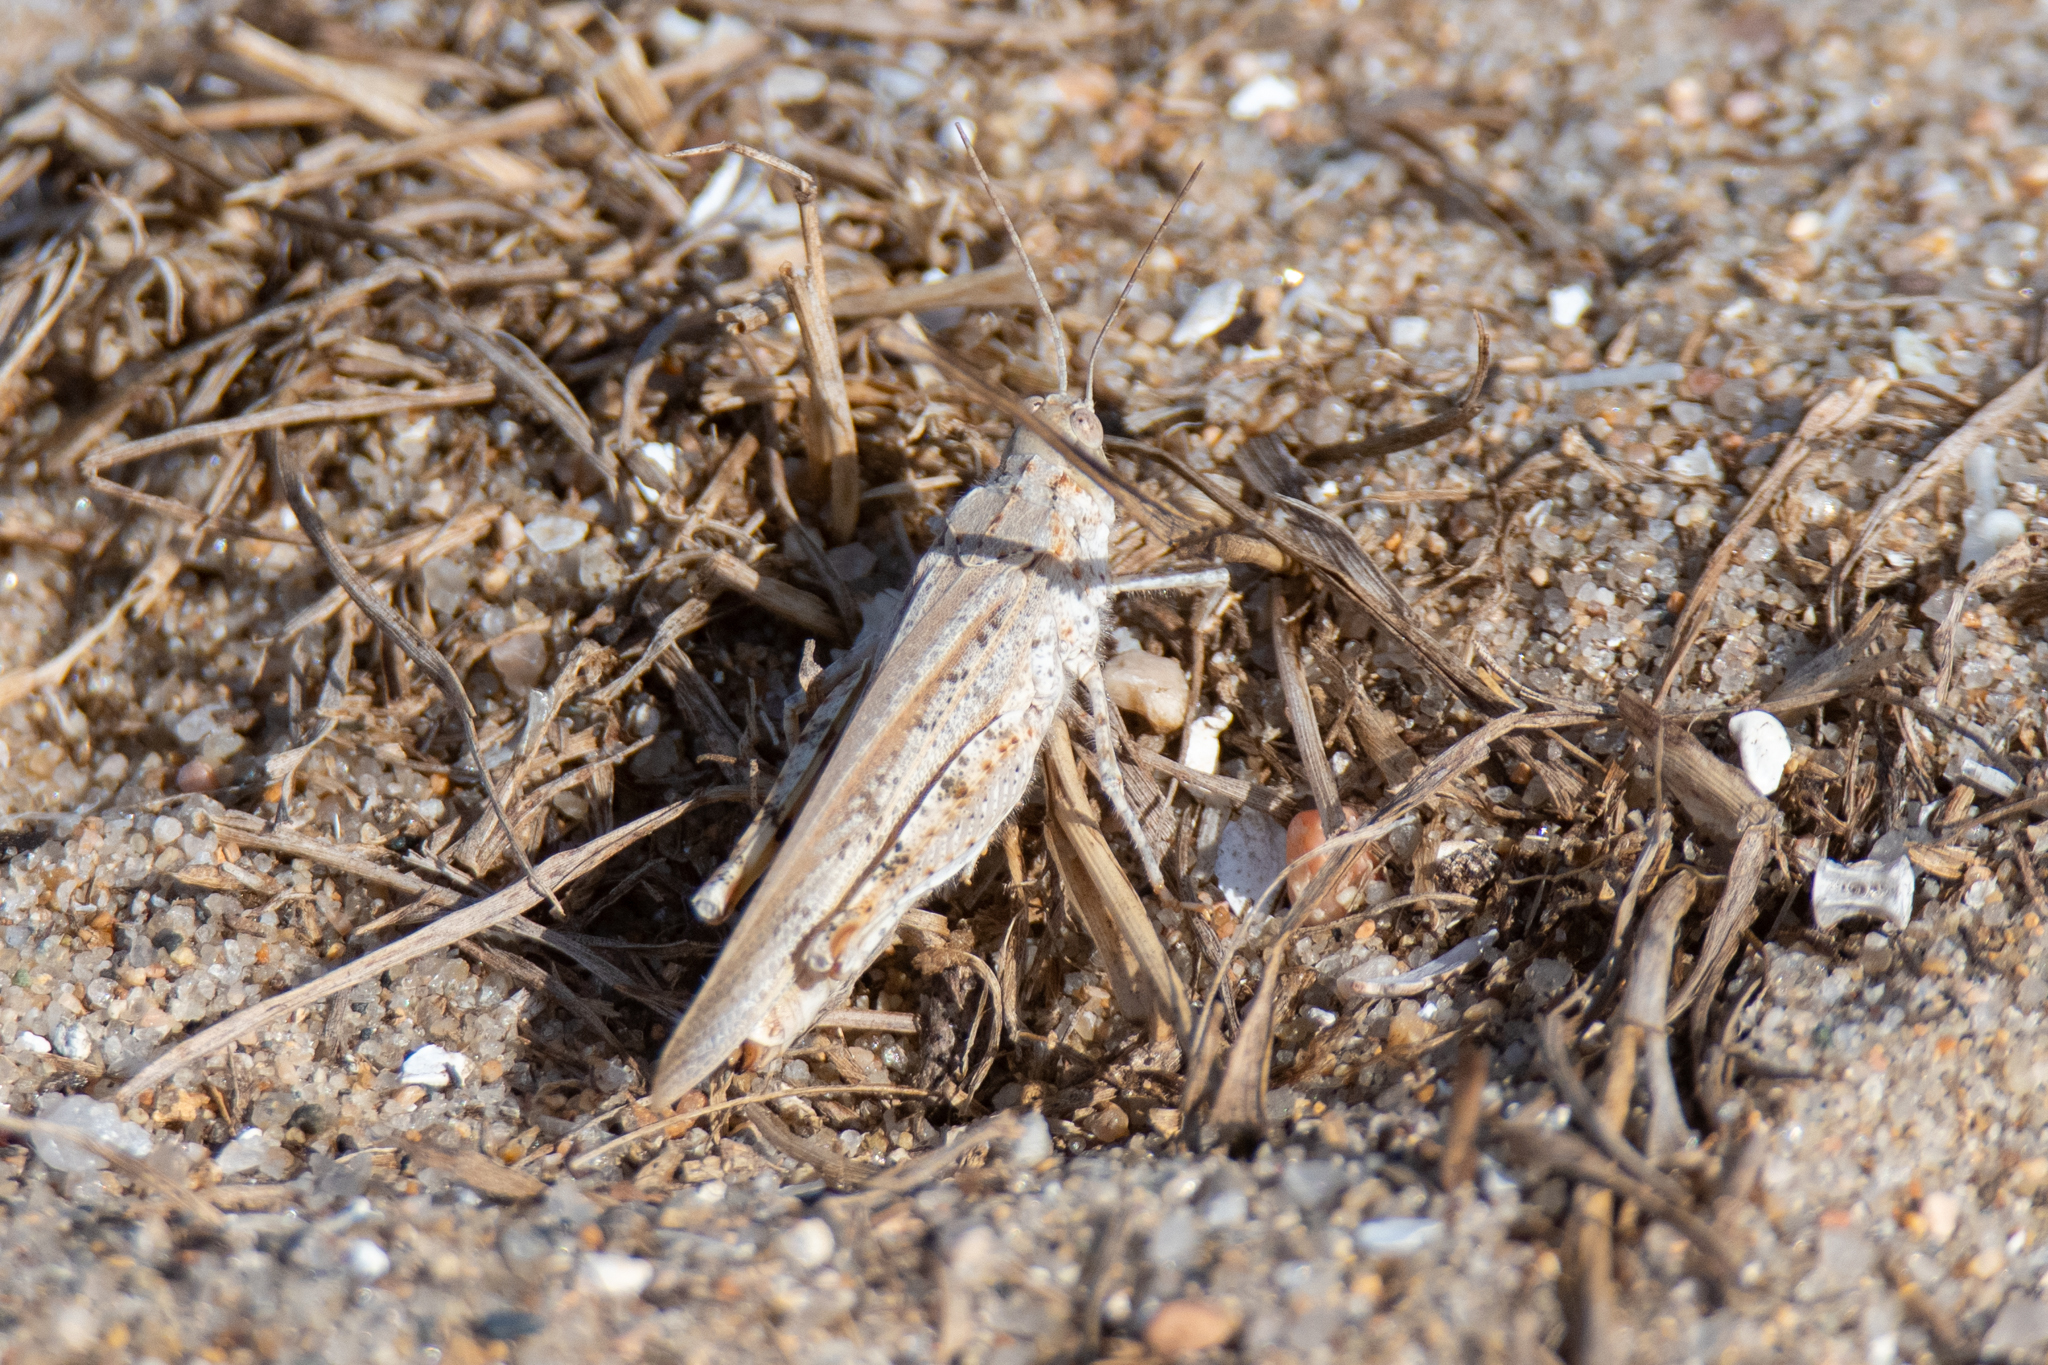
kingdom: Animalia
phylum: Arthropoda
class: Insecta
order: Orthoptera
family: Acrididae
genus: Trimerotropis
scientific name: Trimerotropis maritima
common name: Seaside locust
